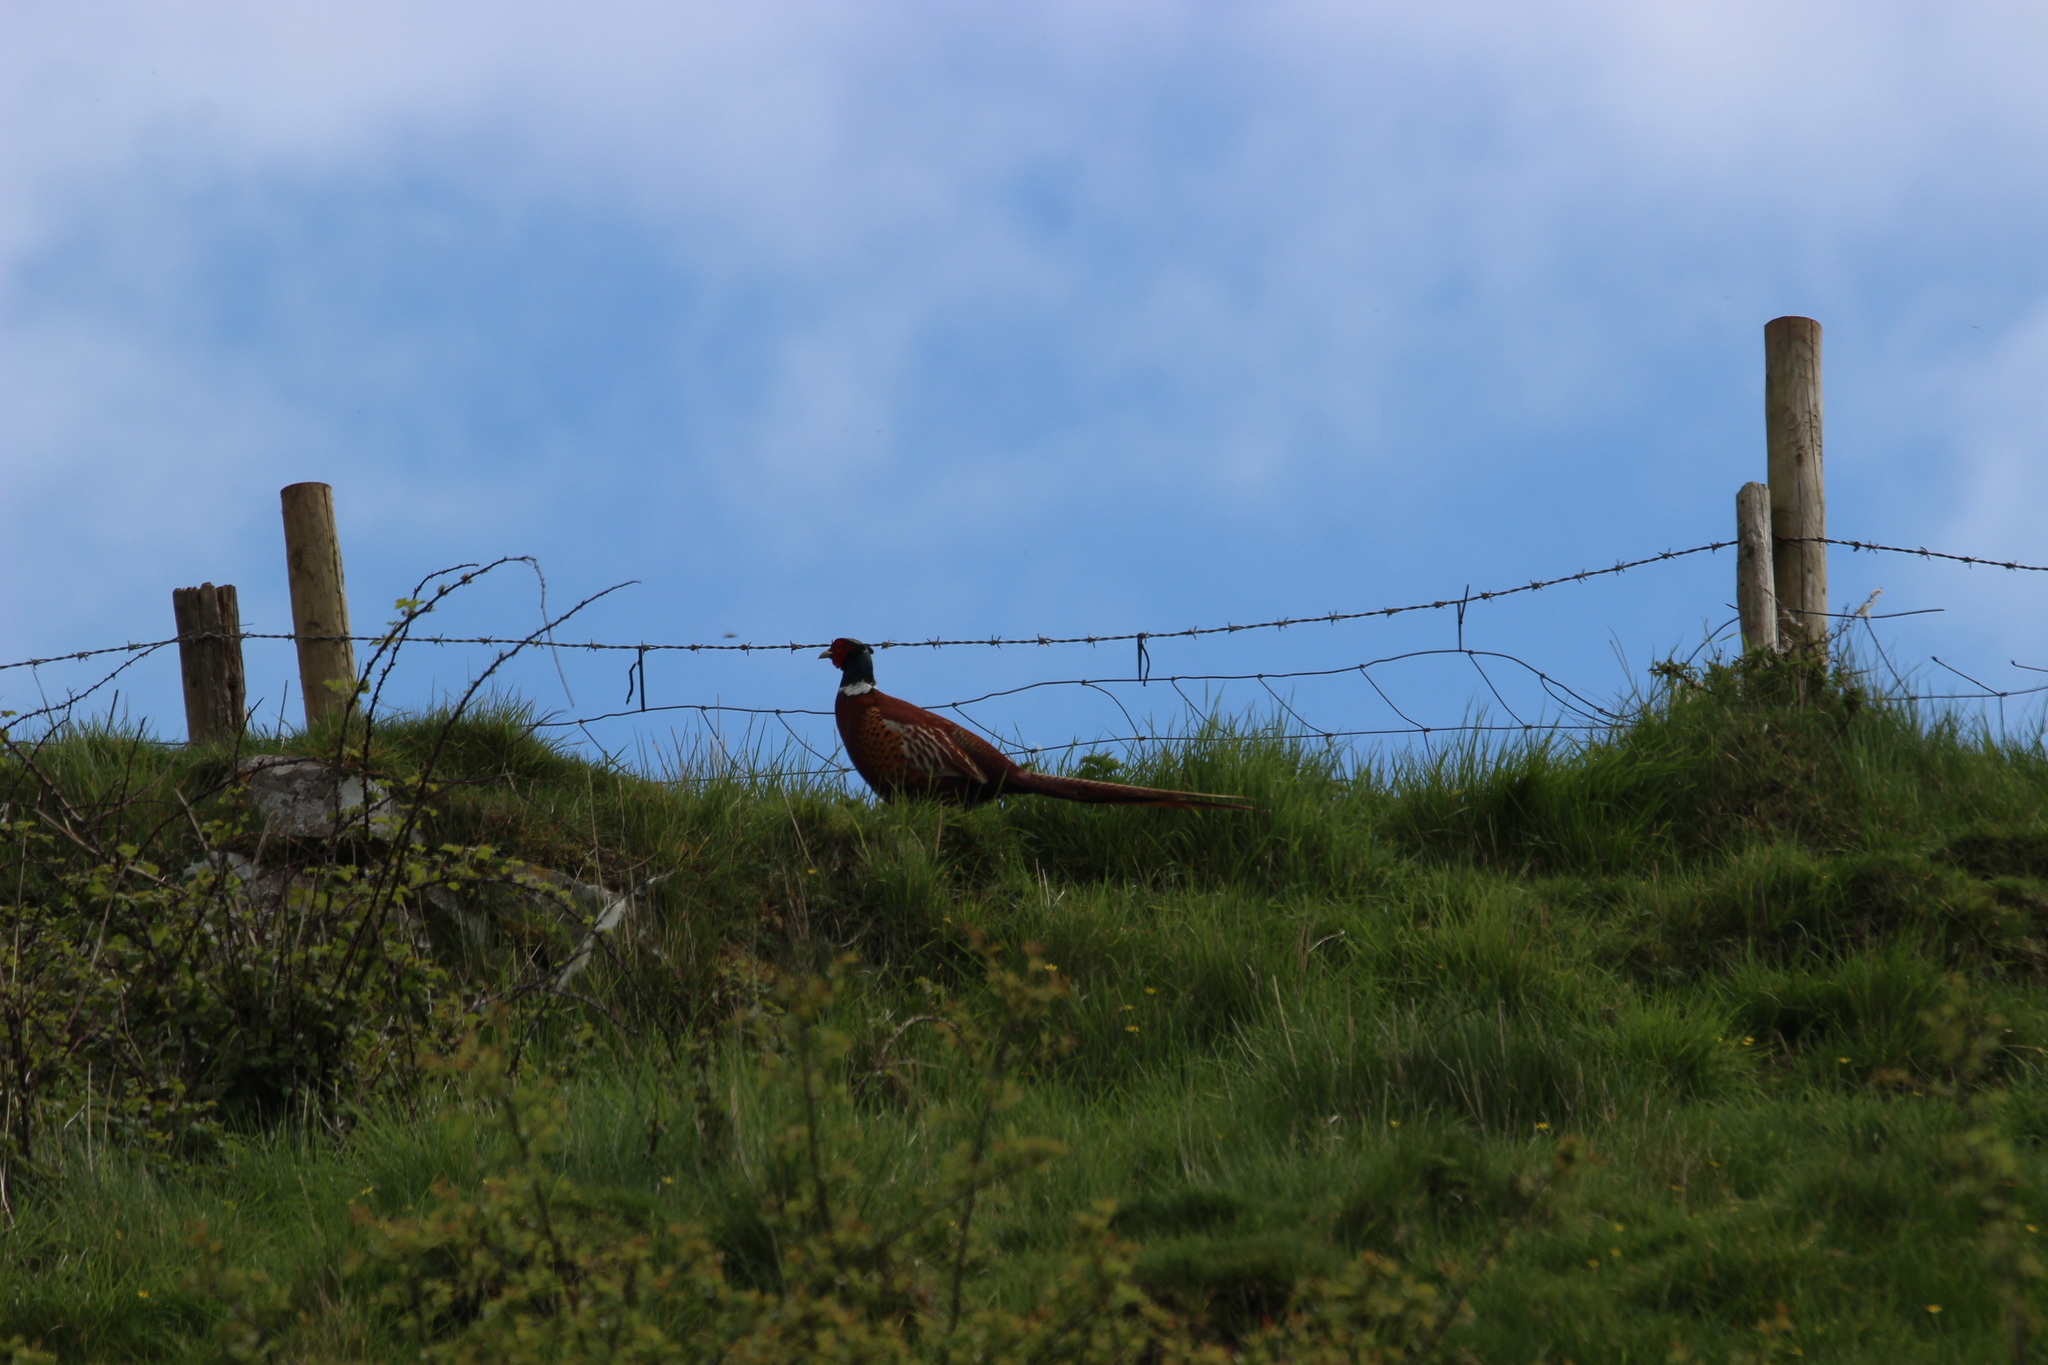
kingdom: Animalia
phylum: Chordata
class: Aves
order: Galliformes
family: Phasianidae
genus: Phasianus
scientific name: Phasianus colchicus
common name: Common pheasant
